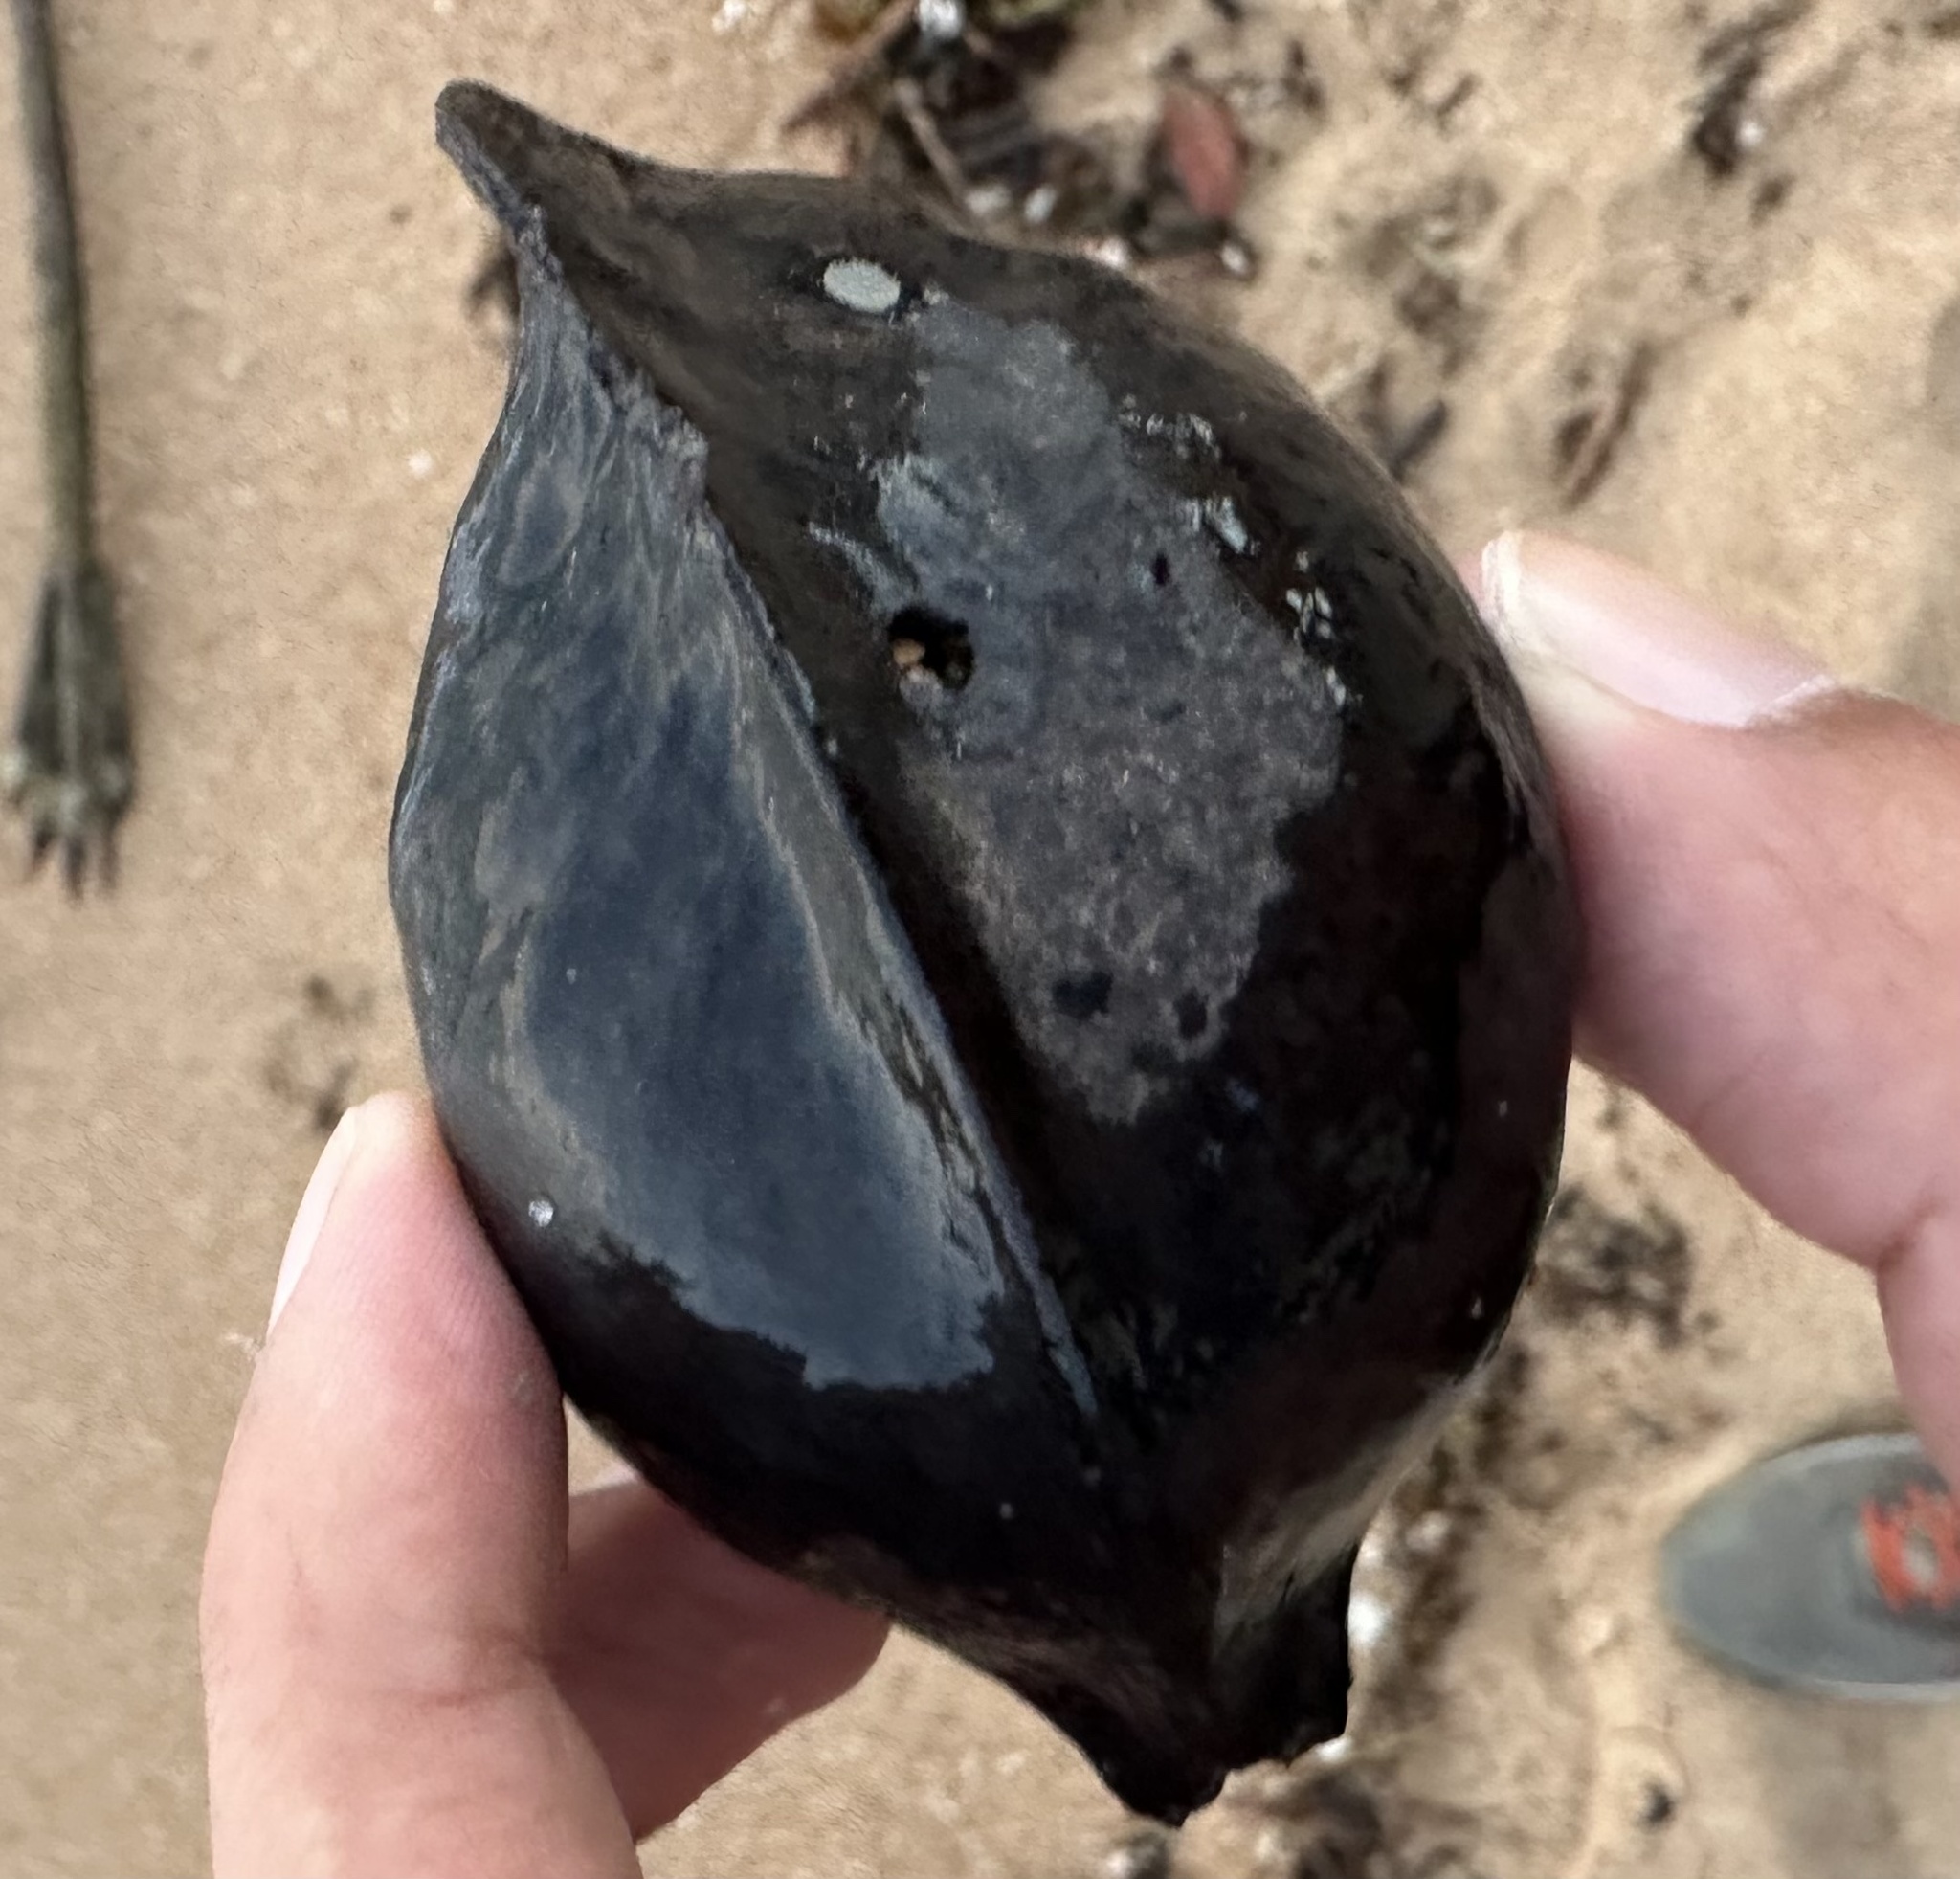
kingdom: Plantae
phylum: Tracheophyta
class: Magnoliopsida
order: Malvales
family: Malvaceae
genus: Heritiera
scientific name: Heritiera littoralis
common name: Looking-glass mangrove
